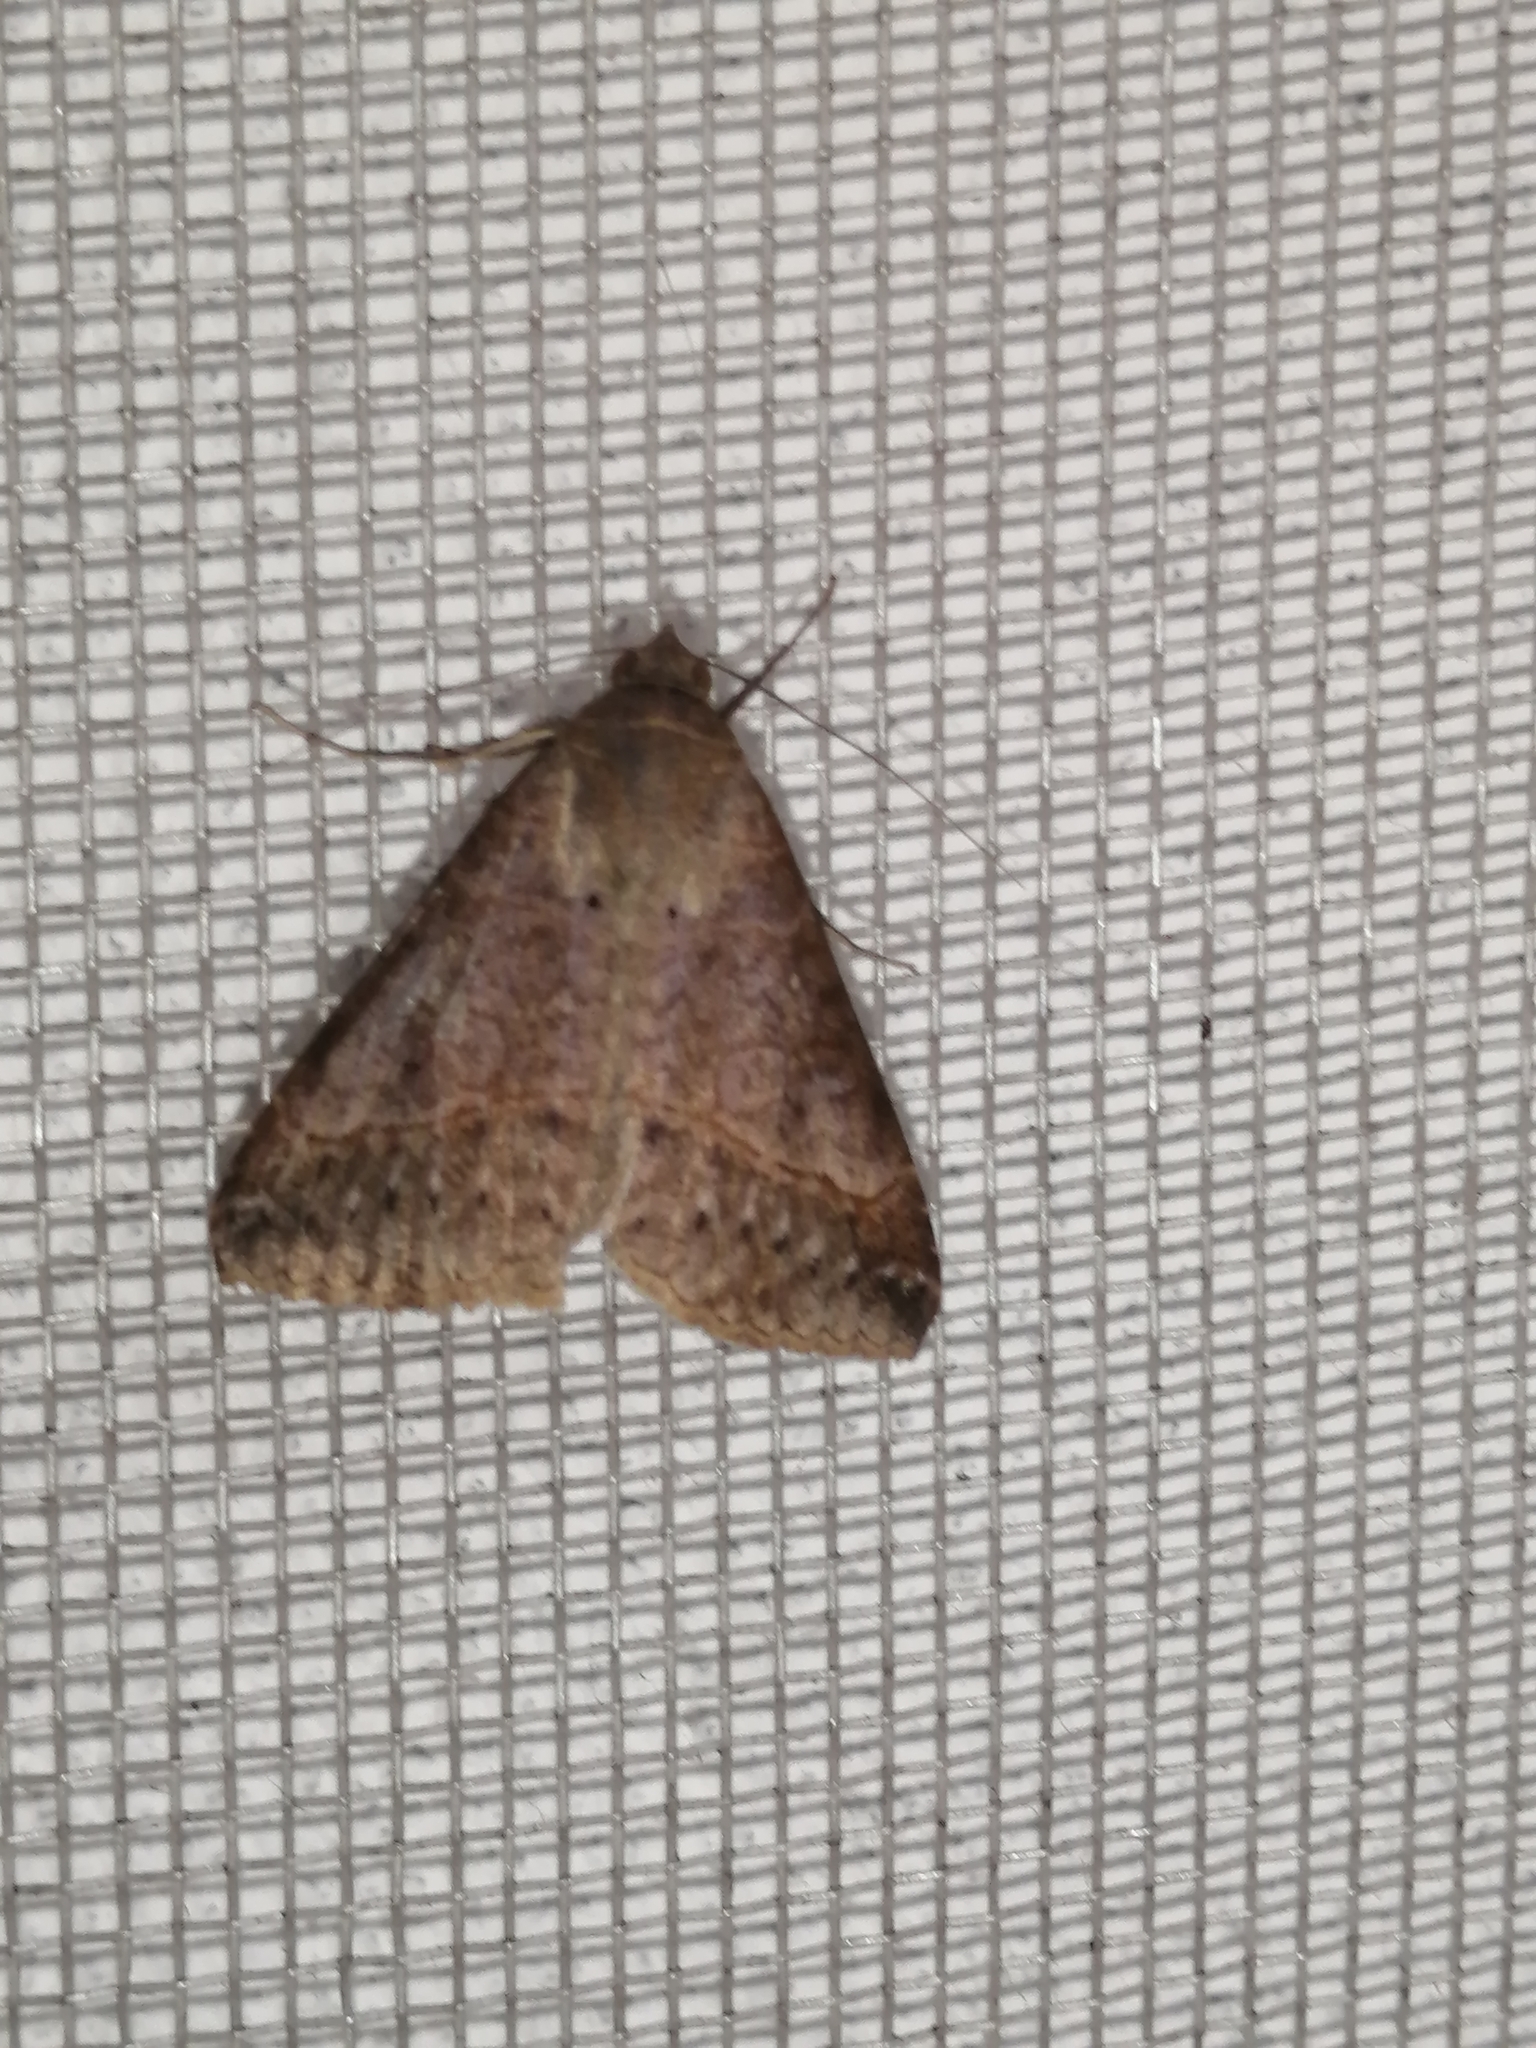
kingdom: Animalia
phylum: Arthropoda
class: Insecta
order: Lepidoptera
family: Erebidae
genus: Mocis
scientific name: Mocis latipes
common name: Striped grass looper
